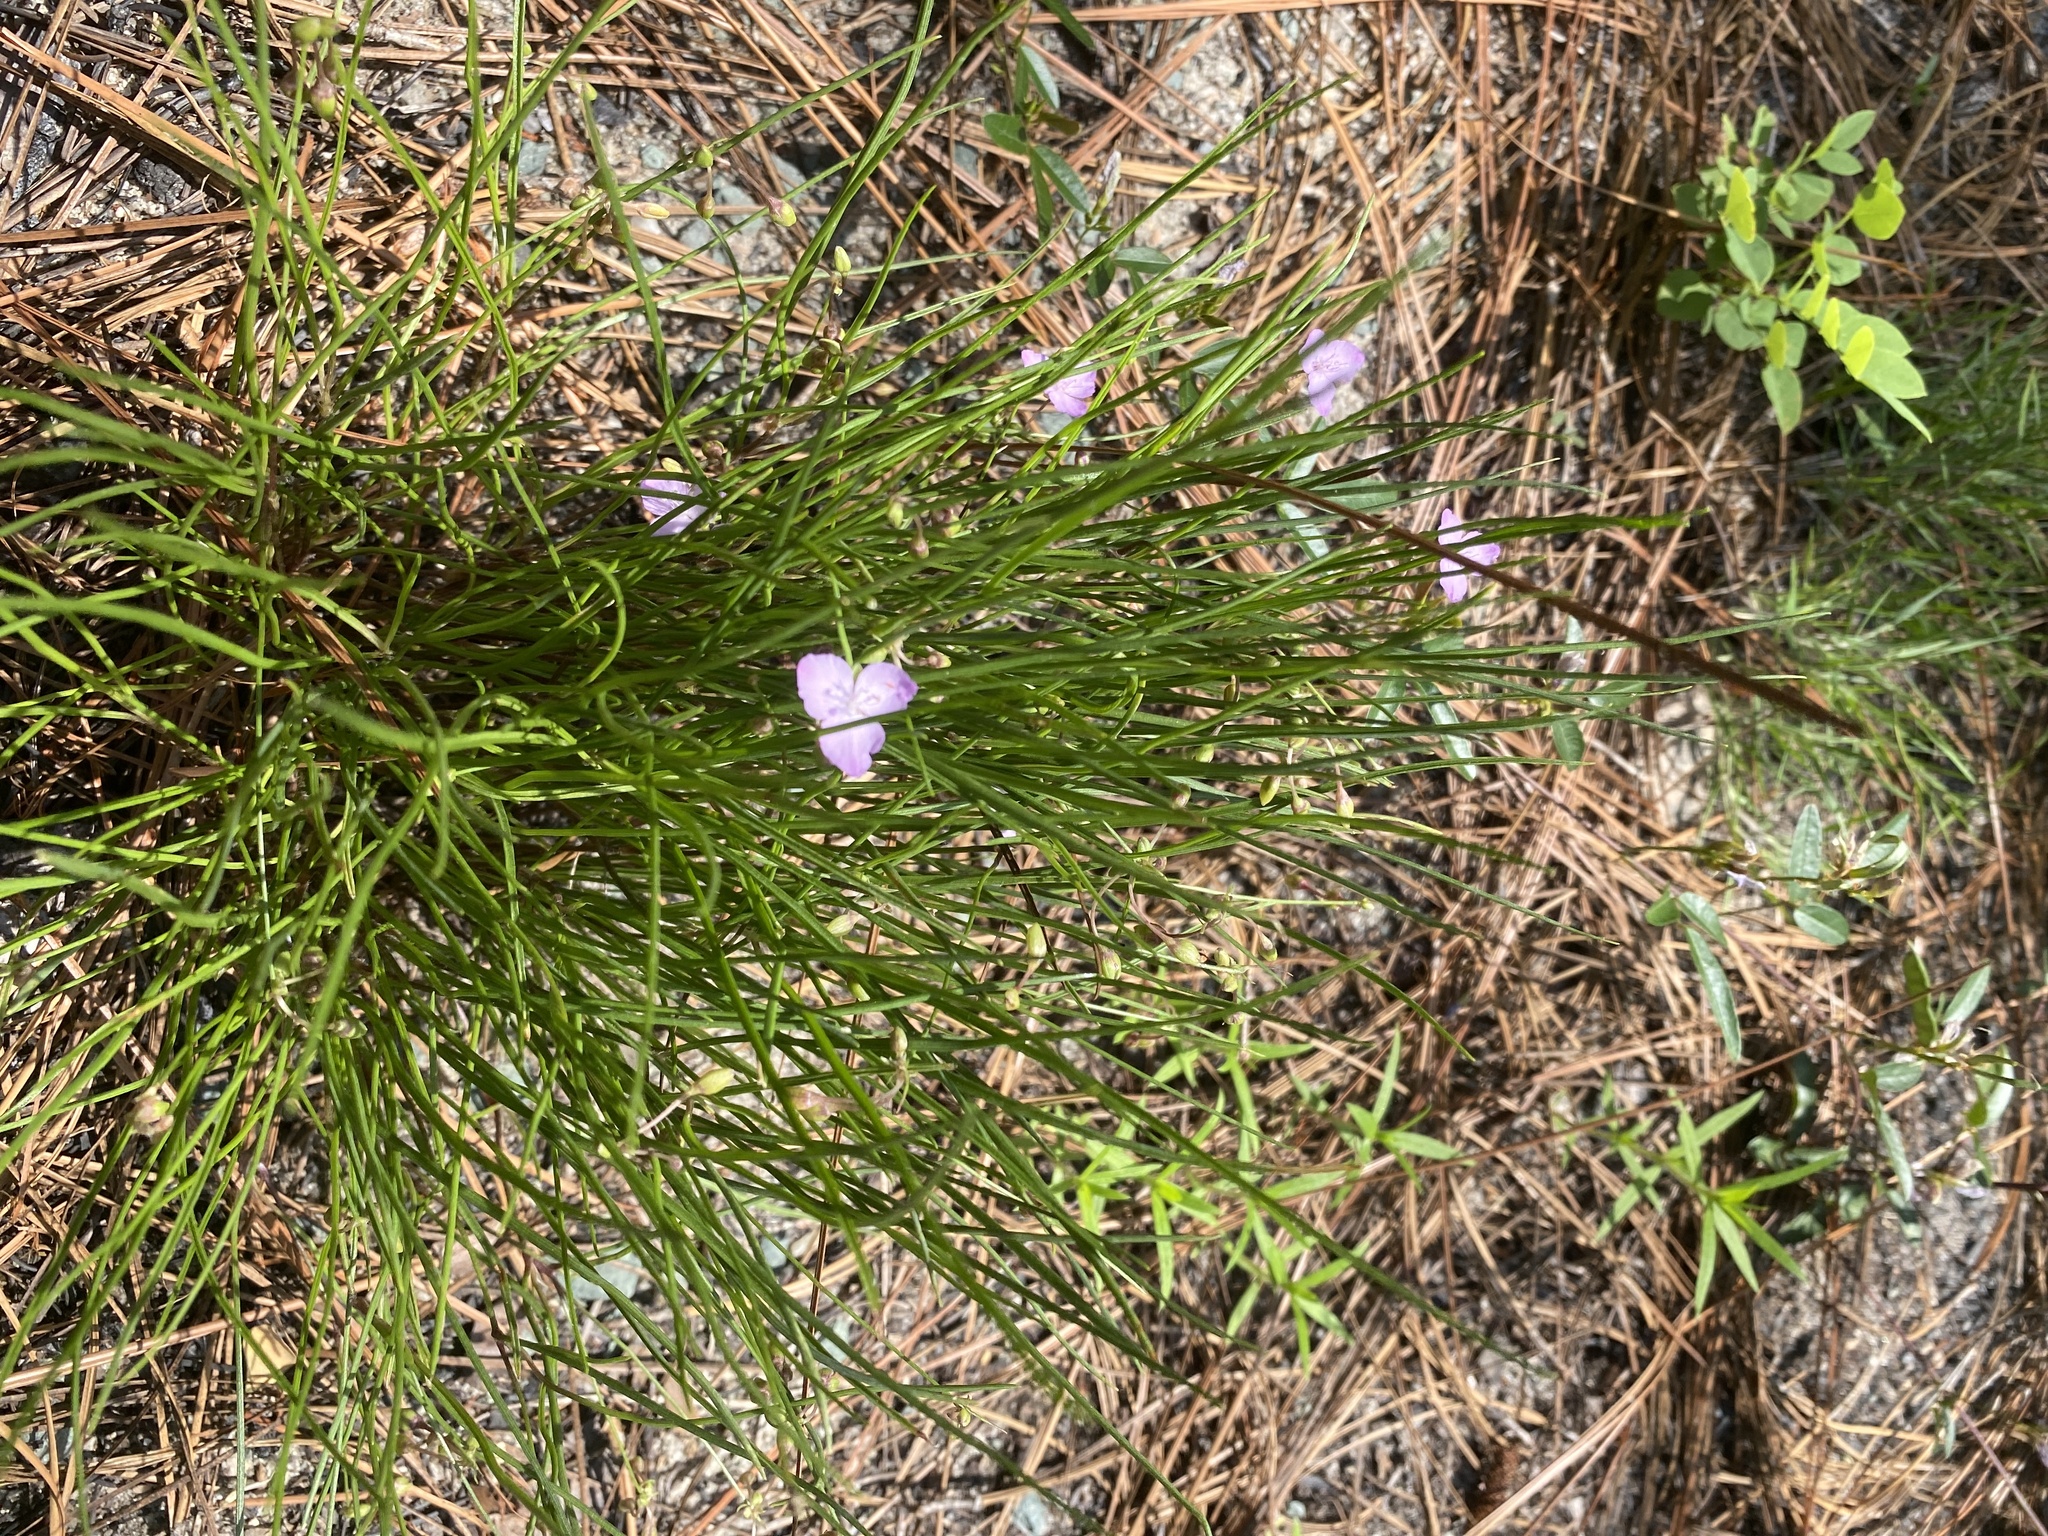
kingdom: Plantae
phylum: Tracheophyta
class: Liliopsida
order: Commelinales
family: Commelinaceae
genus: Callisia
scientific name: Callisia graminea
